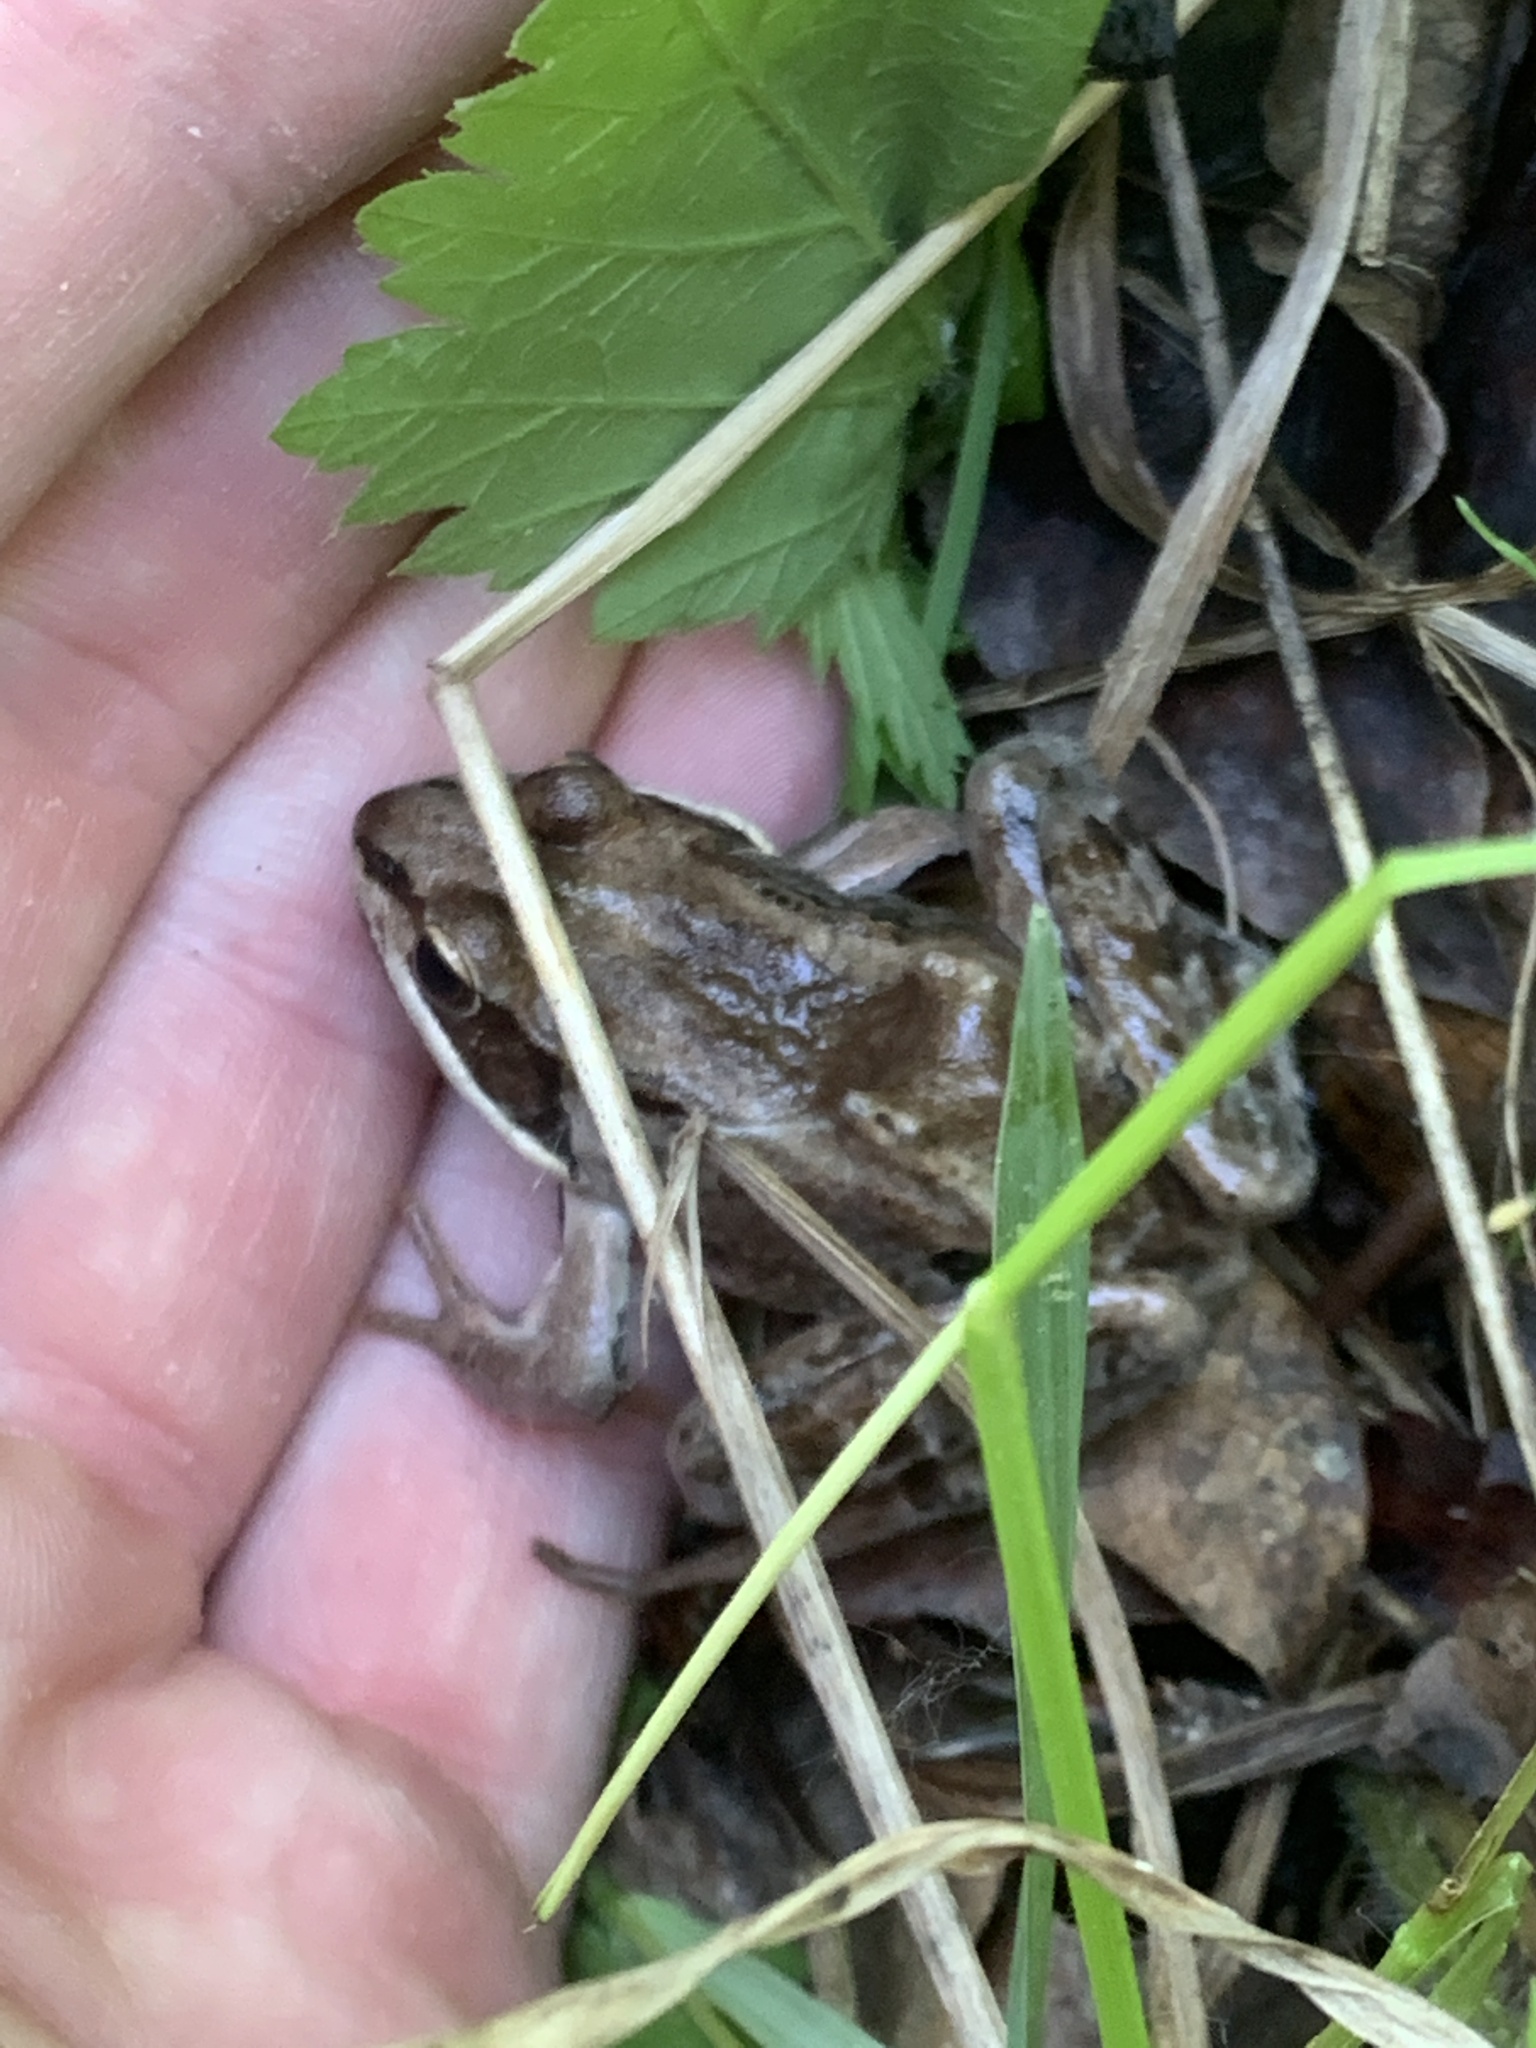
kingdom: Animalia
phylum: Chordata
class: Amphibia
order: Anura
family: Ranidae
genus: Lithobates
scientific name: Lithobates sylvaticus
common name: Wood frog
